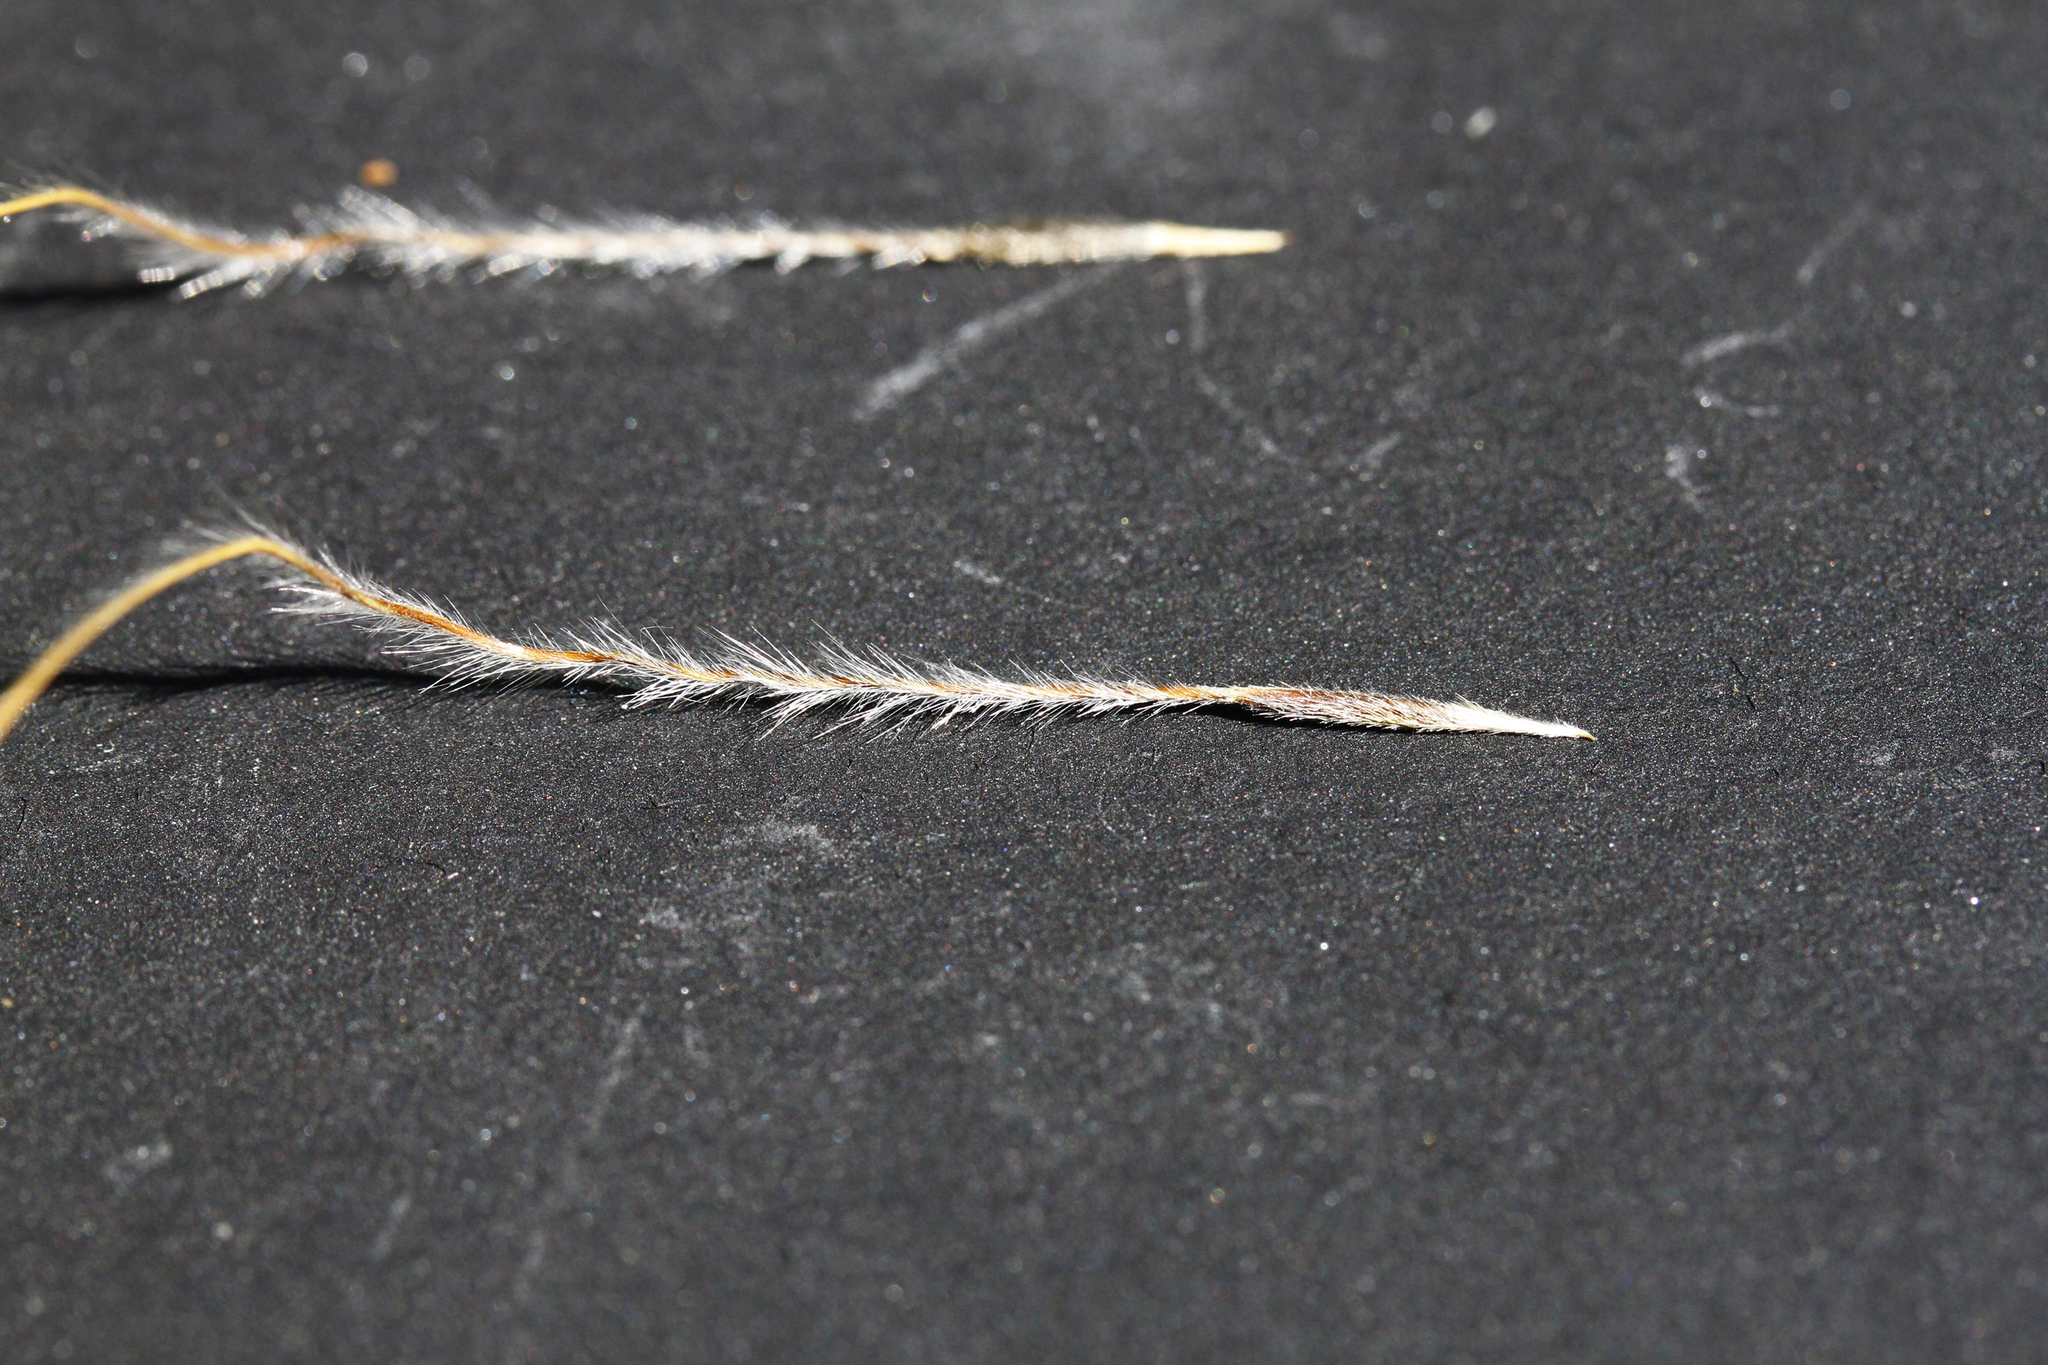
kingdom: Plantae
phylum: Tracheophyta
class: Liliopsida
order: Poales
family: Poaceae
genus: Austrostipa
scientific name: Austrostipa mollis
